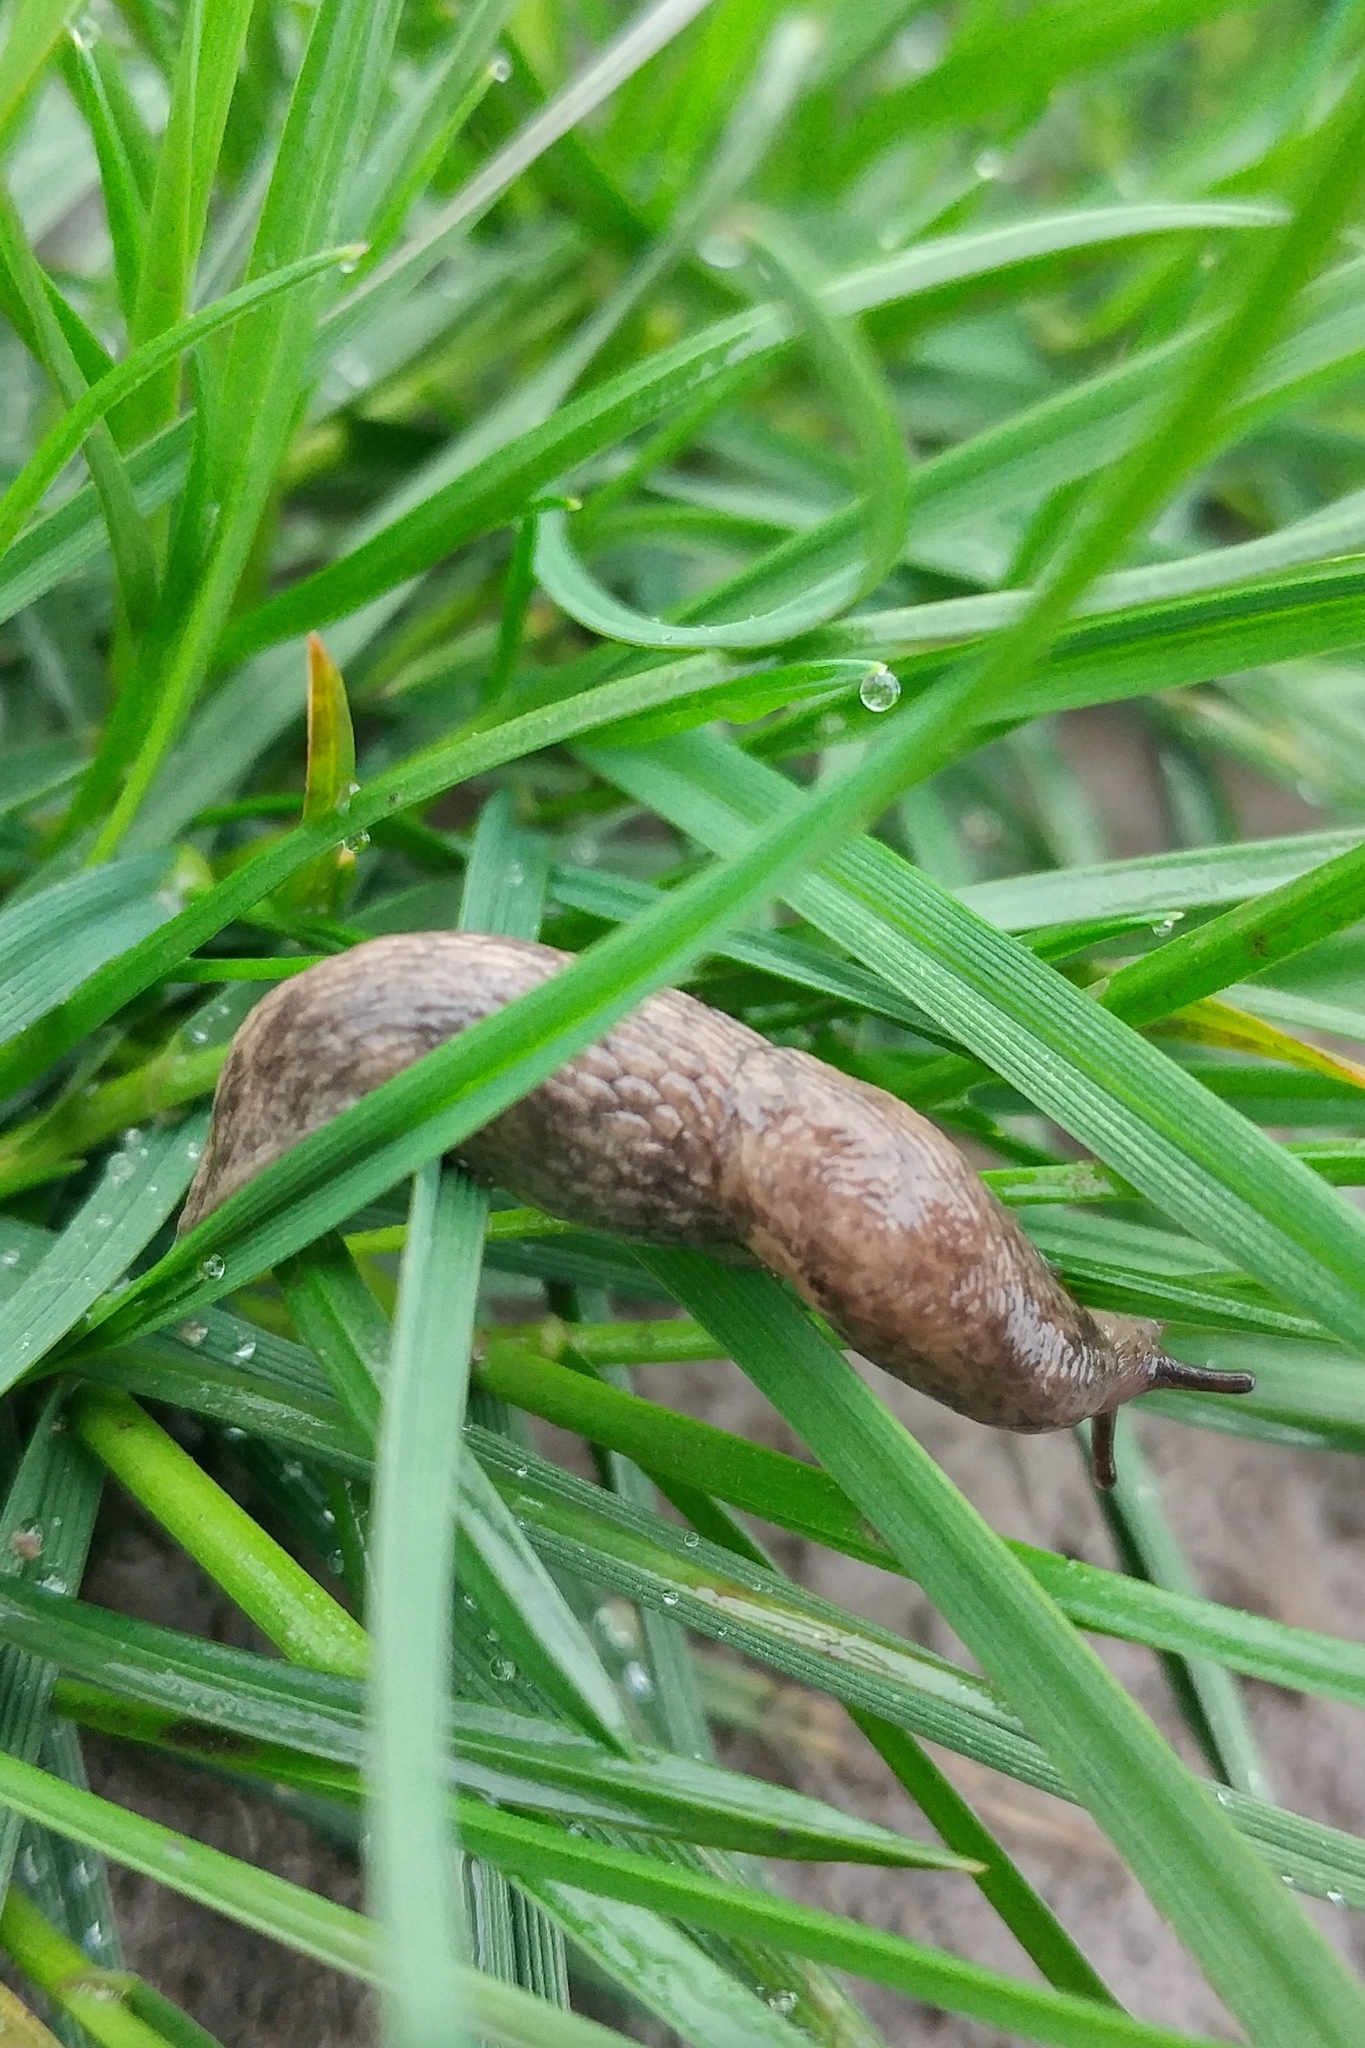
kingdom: Animalia
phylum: Mollusca
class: Gastropoda
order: Stylommatophora
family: Agriolimacidae
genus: Deroceras
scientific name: Deroceras reticulatum
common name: Gray field slug
